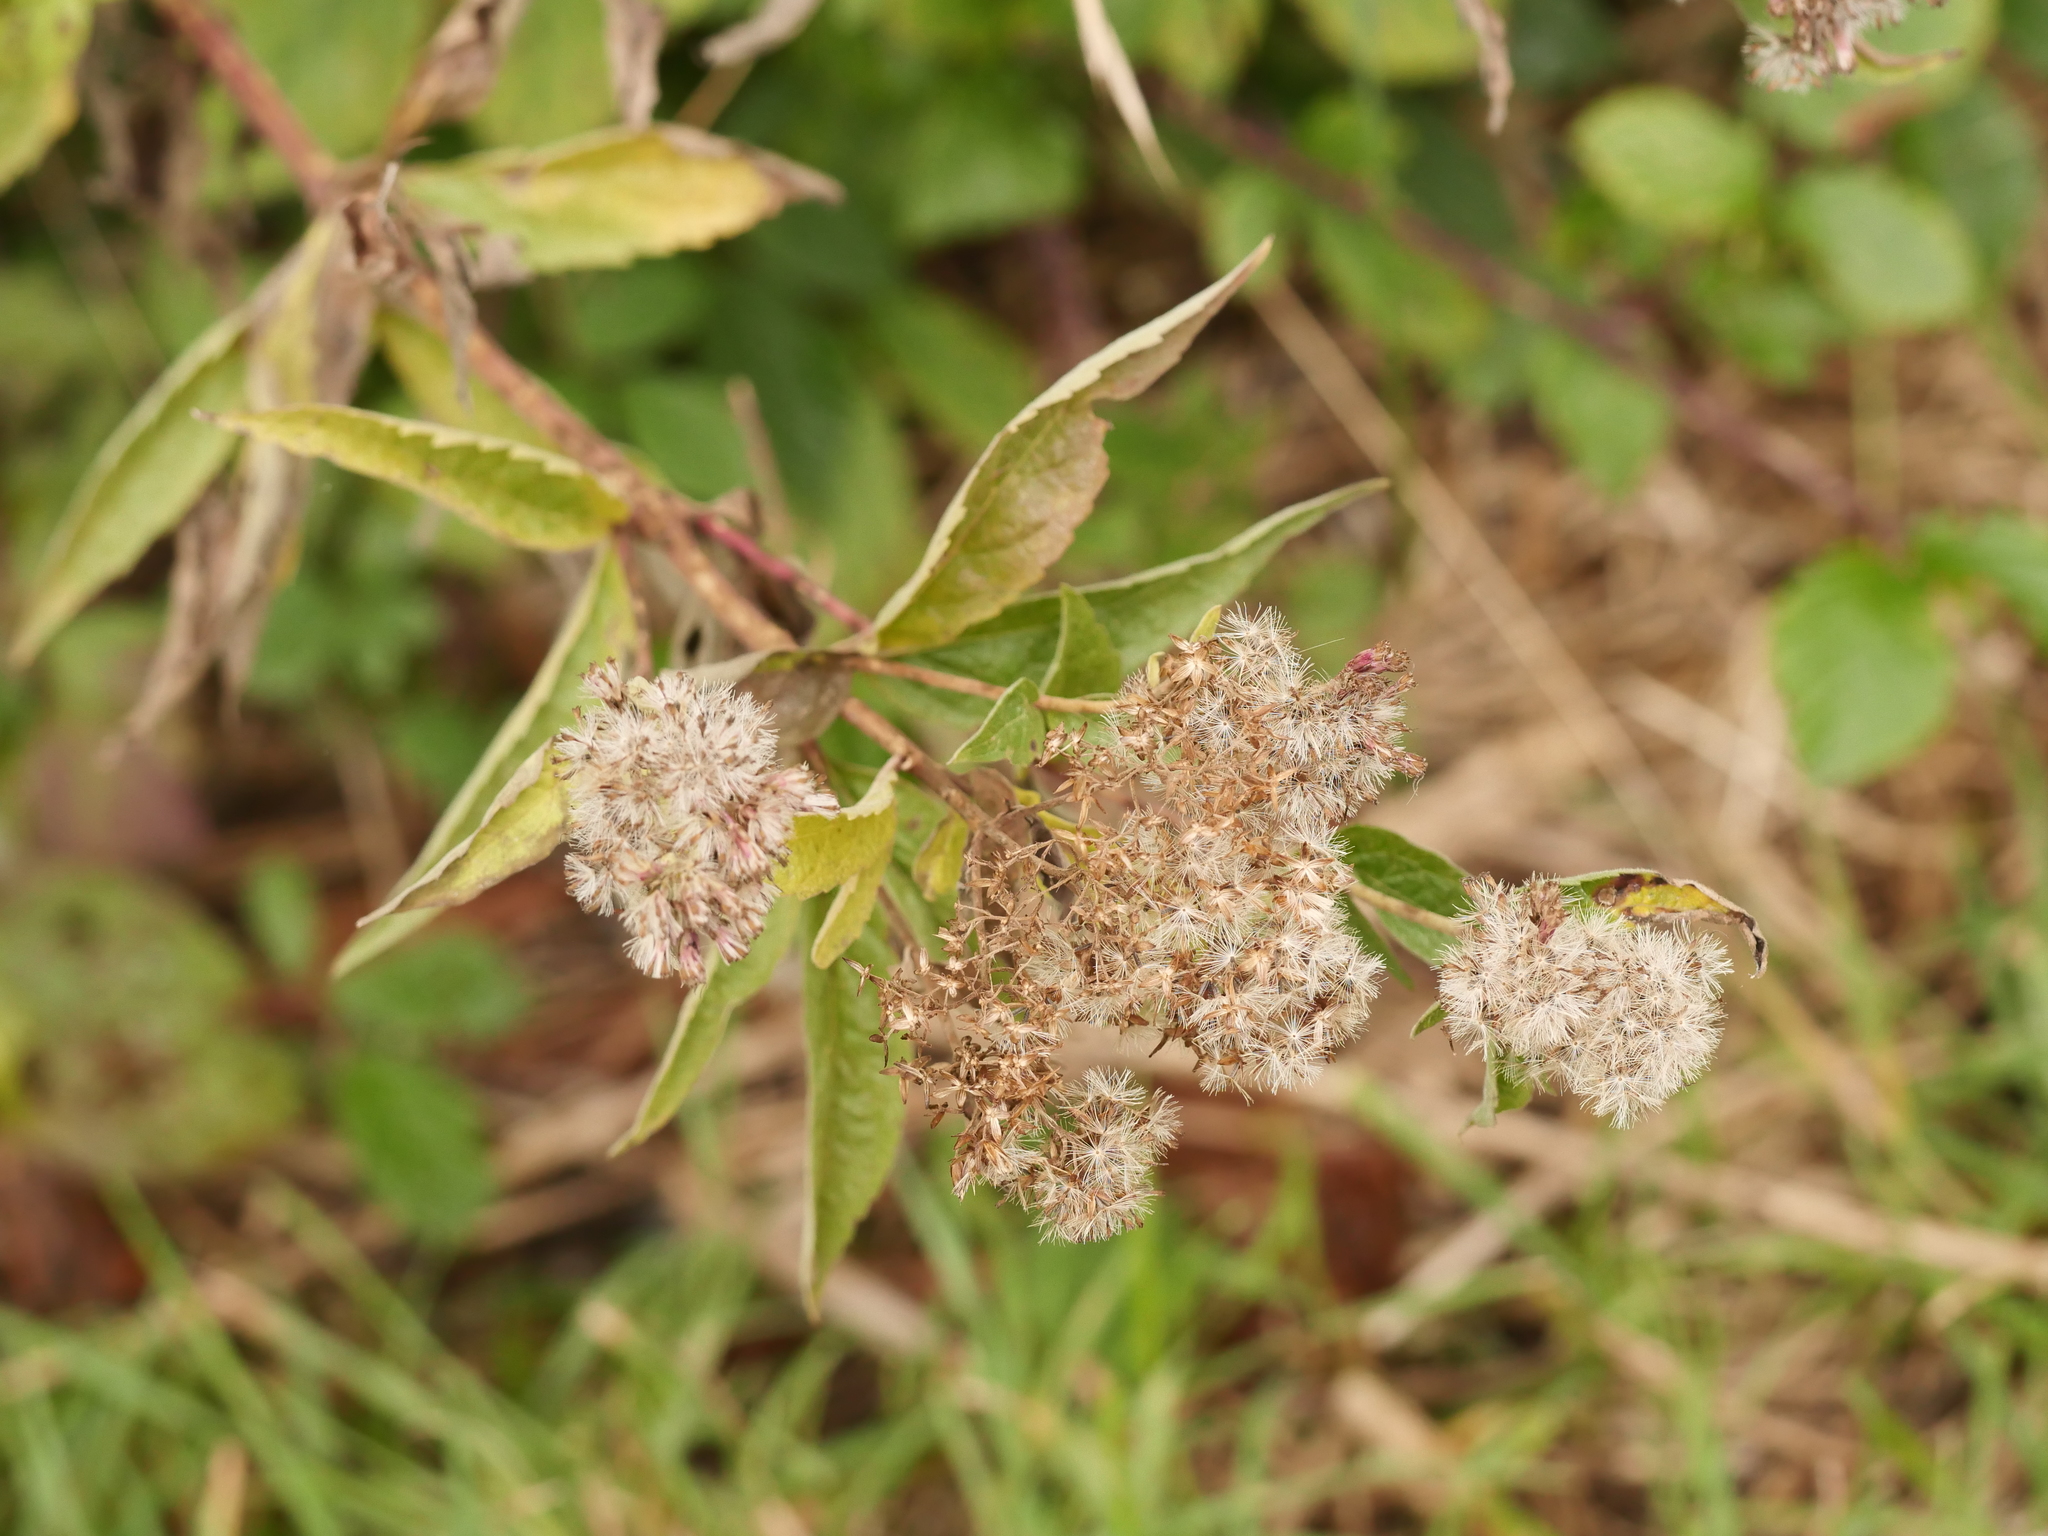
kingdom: Plantae
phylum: Tracheophyta
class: Magnoliopsida
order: Asterales
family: Asteraceae
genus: Eupatorium
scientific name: Eupatorium cannabinum
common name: Hemp-agrimony
